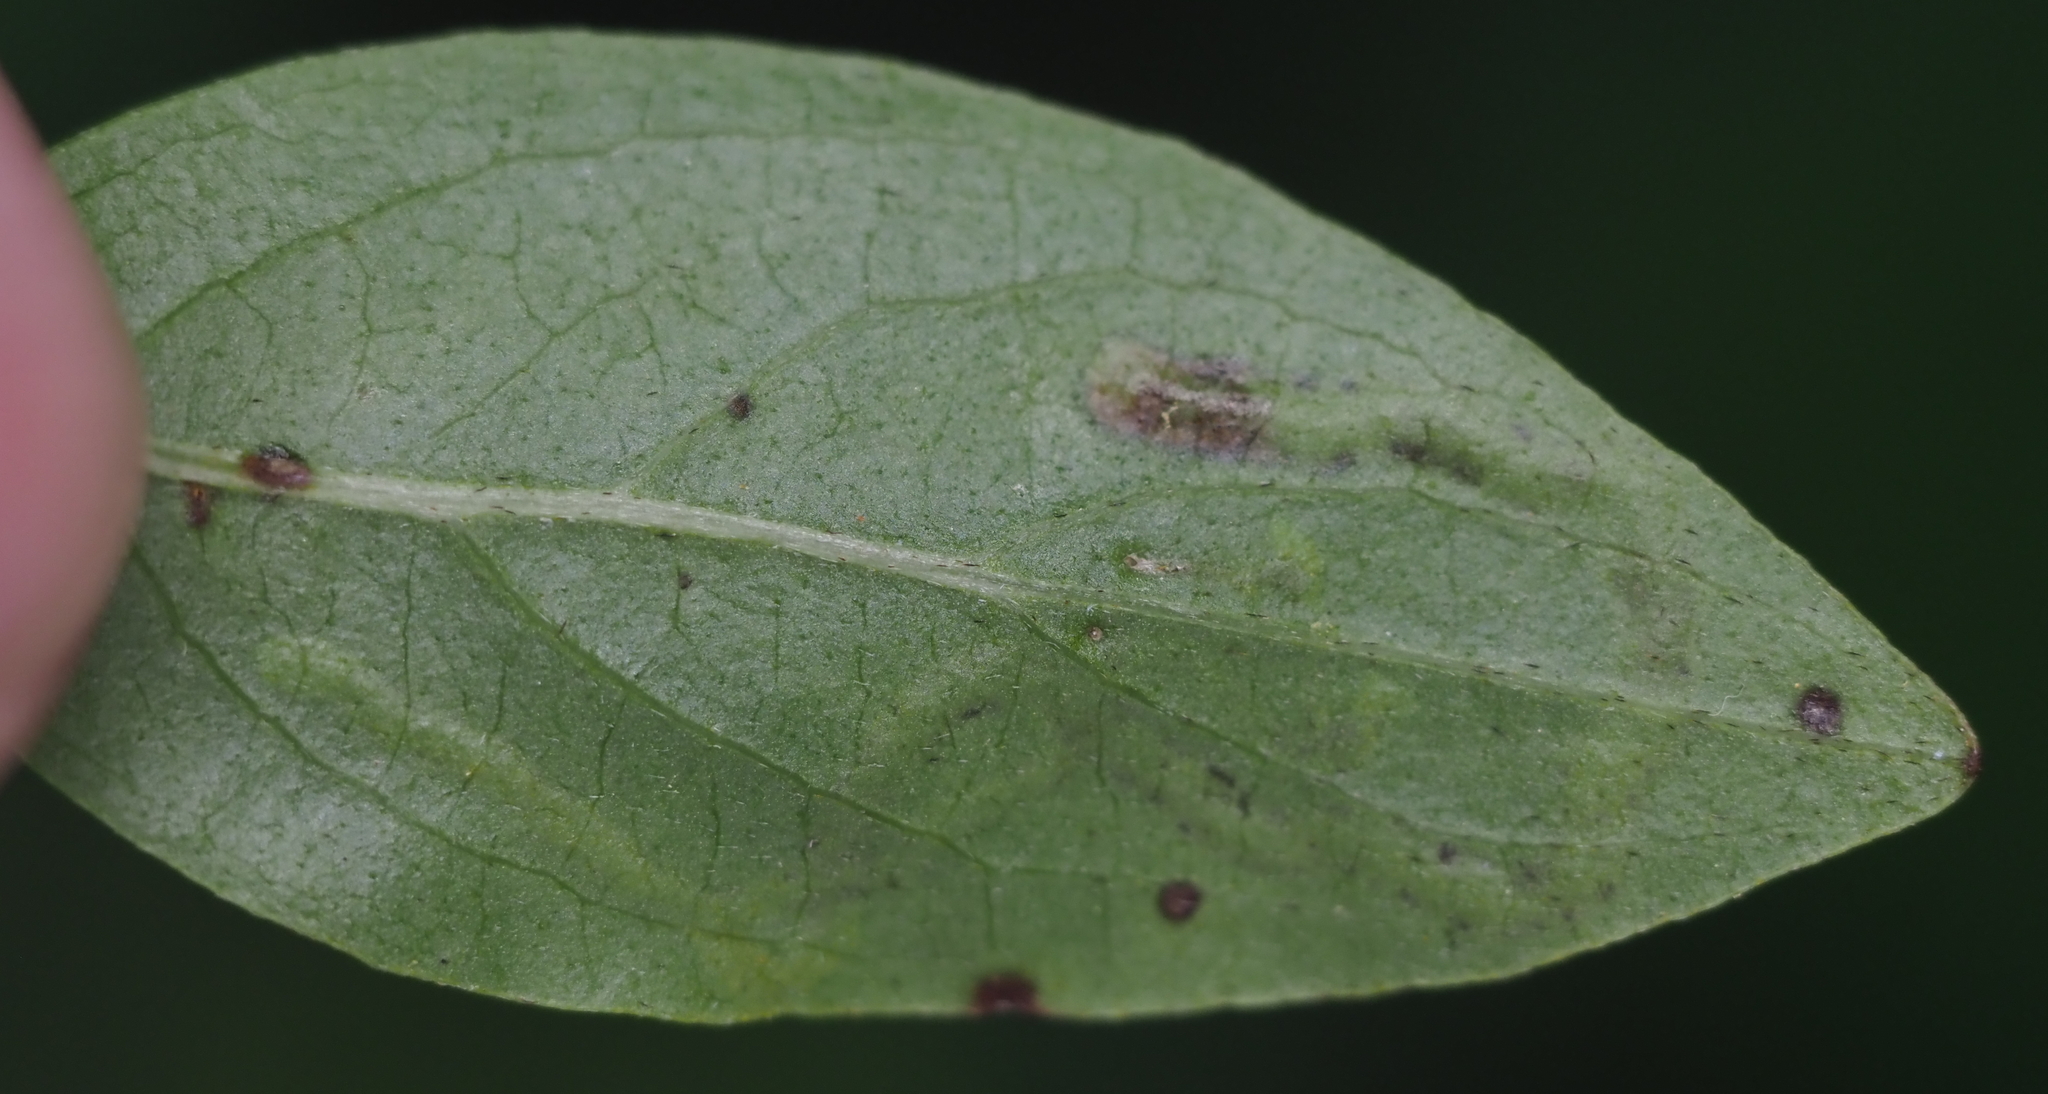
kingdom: Animalia
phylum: Arthropoda
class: Insecta
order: Diptera
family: Agromyzidae
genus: Phytomyza
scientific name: Phytomyza agromyzina
